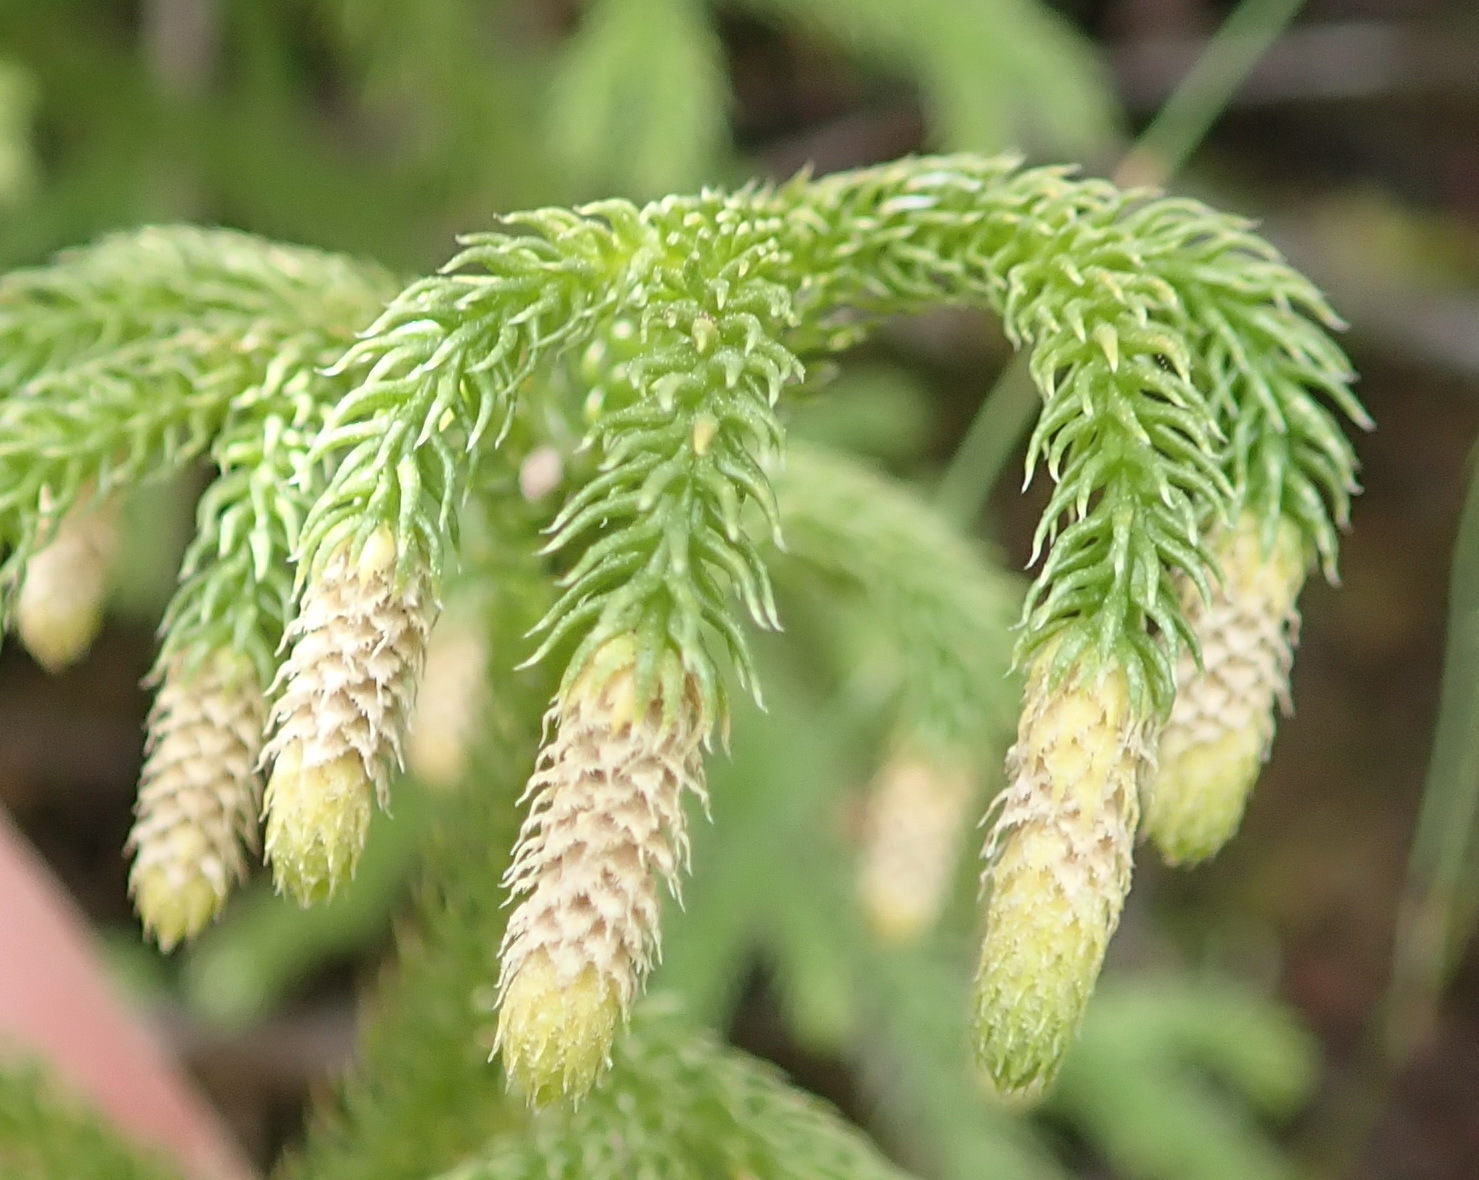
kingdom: Plantae
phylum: Tracheophyta
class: Lycopodiopsida
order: Lycopodiales
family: Lycopodiaceae
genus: Palhinhaea
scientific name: Palhinhaea cernua
